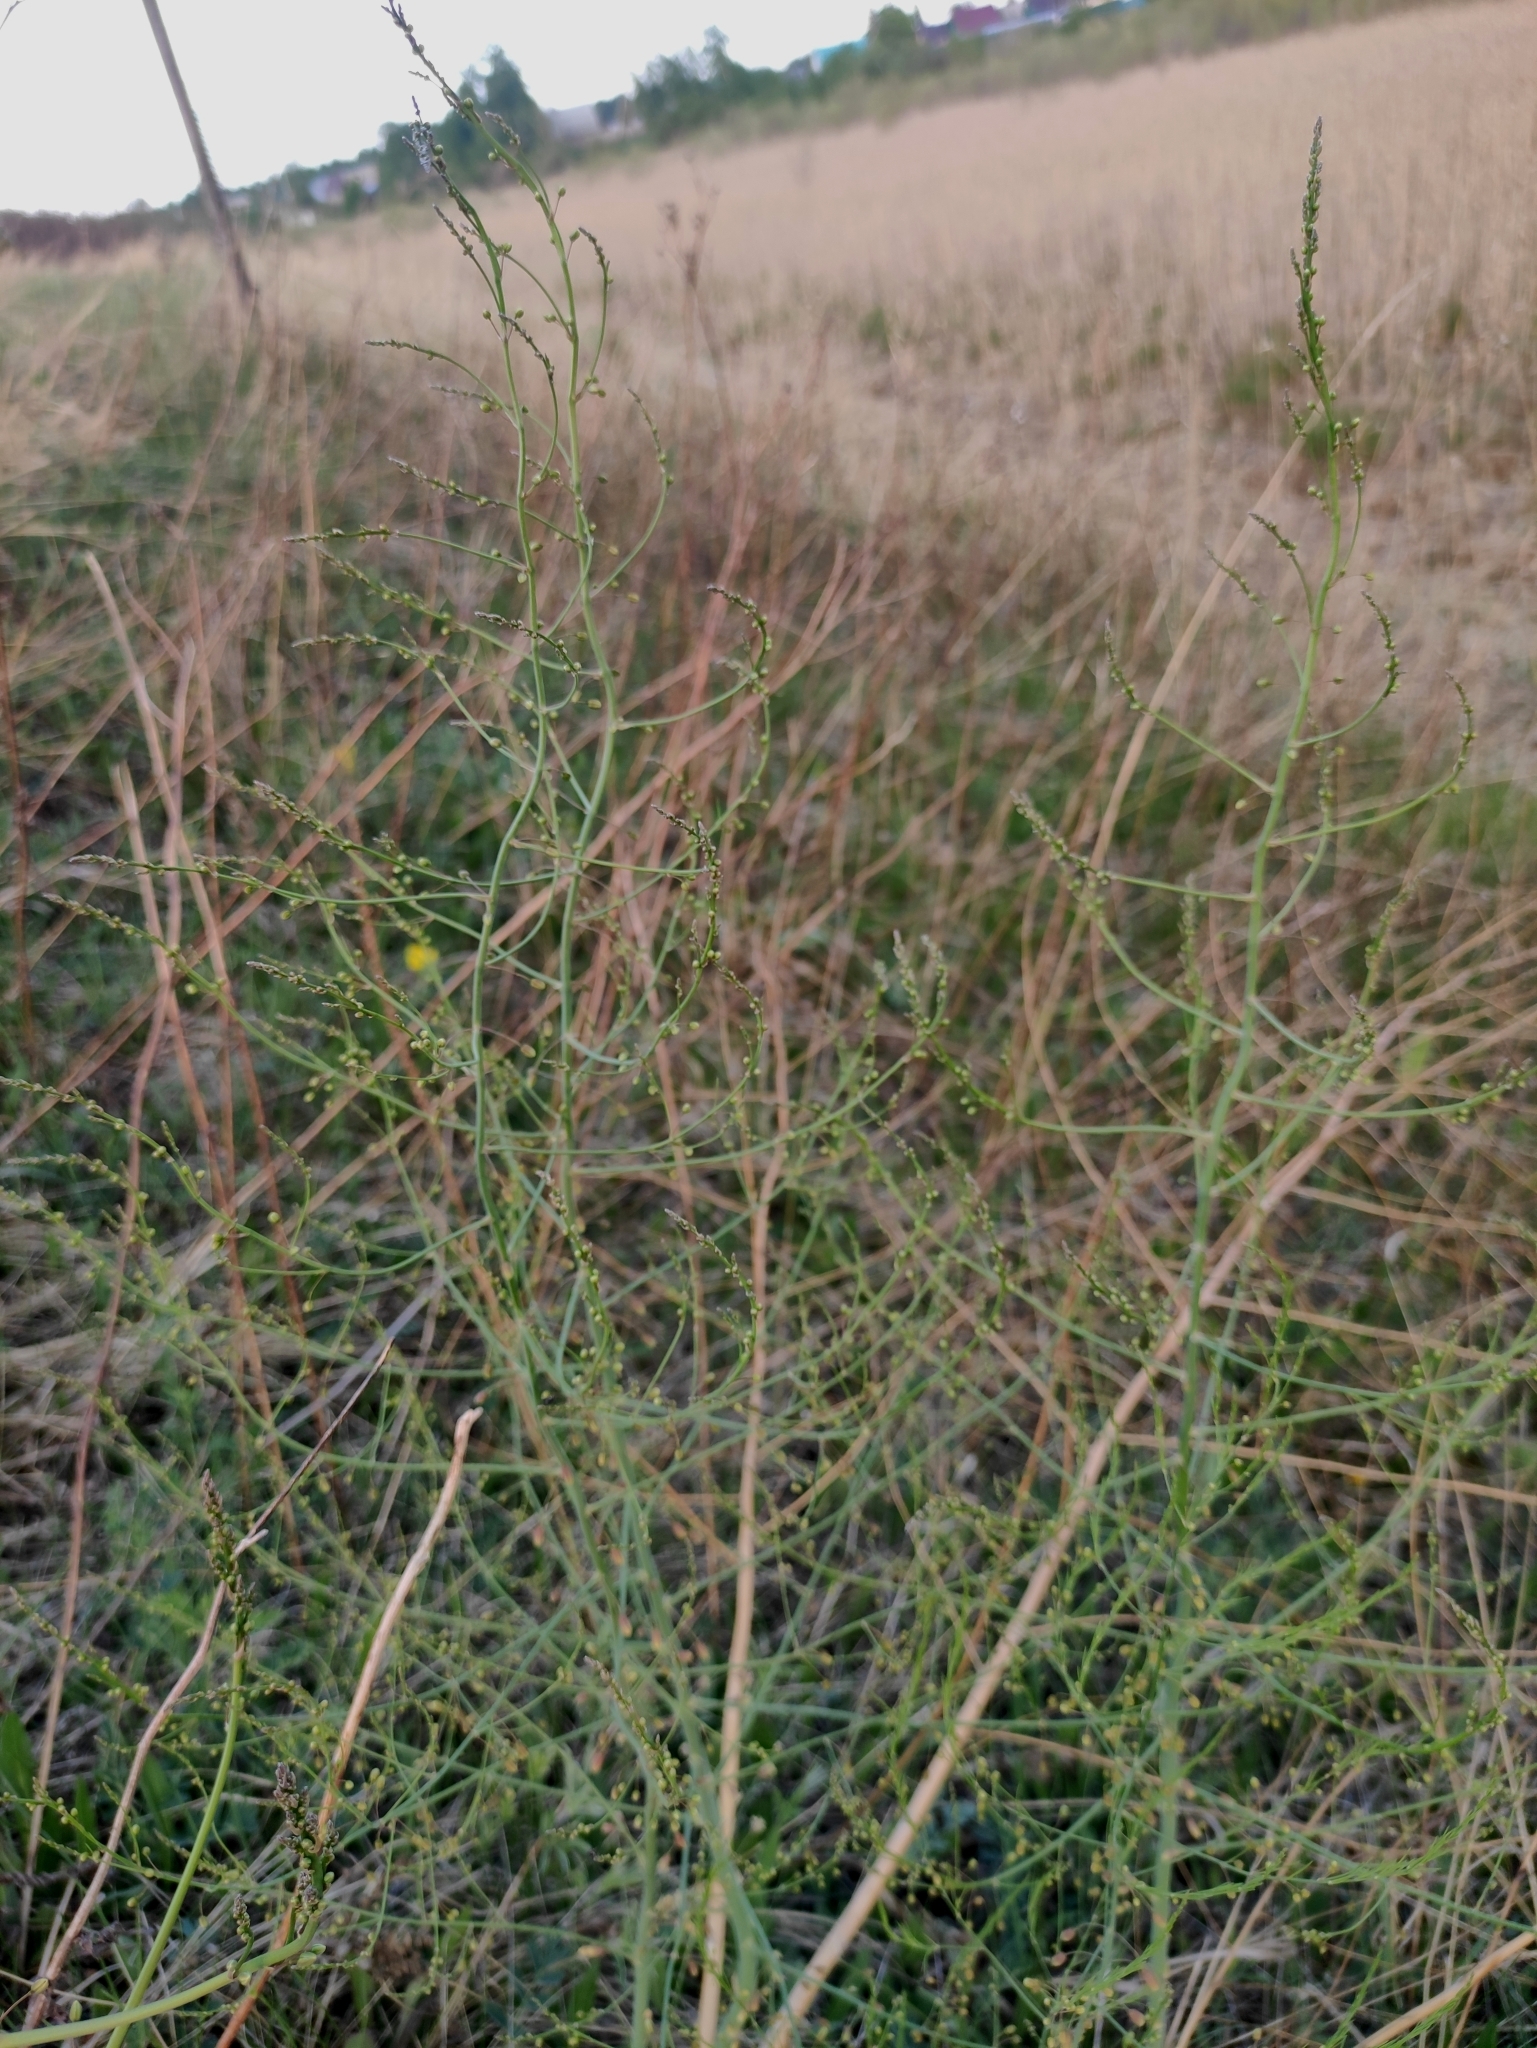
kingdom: Plantae
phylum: Tracheophyta
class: Liliopsida
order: Asparagales
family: Asparagaceae
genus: Asparagus
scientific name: Asparagus officinalis
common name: Garden asparagus
